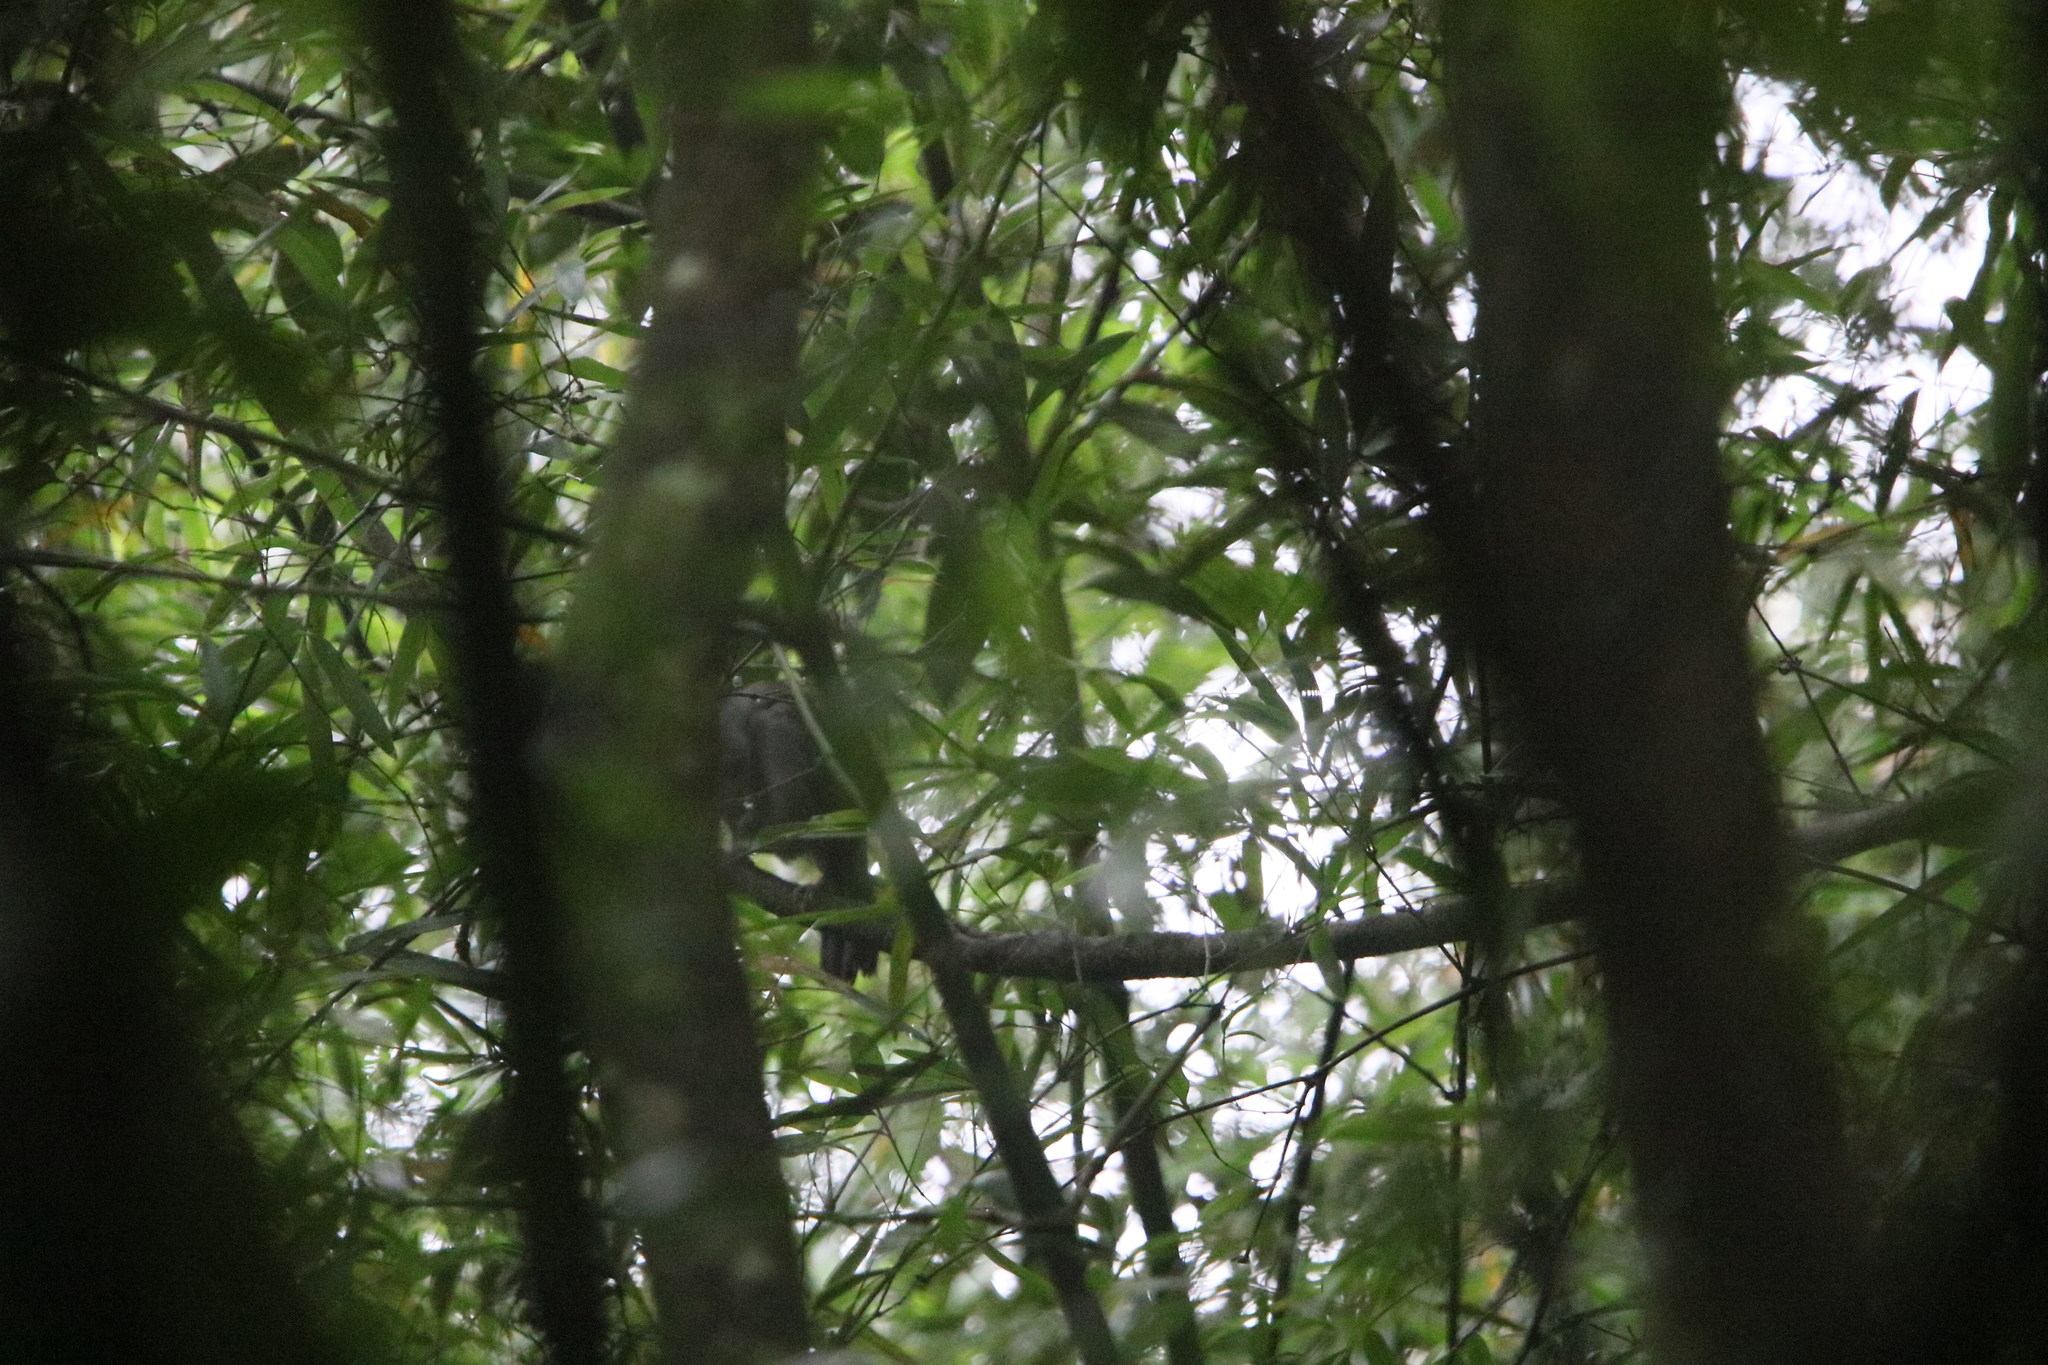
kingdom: Animalia
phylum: Chordata
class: Aves
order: Passeriformes
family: Leiothrichidae
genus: Garrulax
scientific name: Garrulax maesi
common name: Grey laughingthrush
